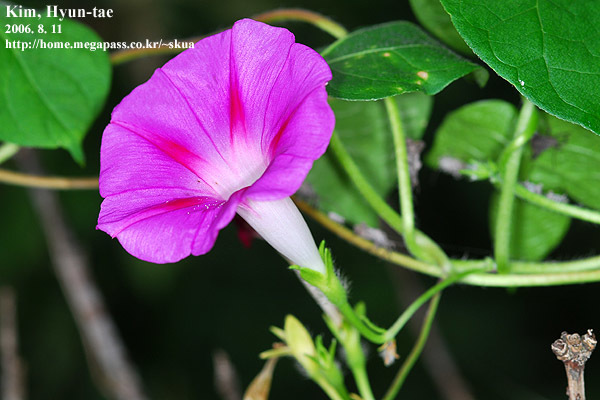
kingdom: Plantae
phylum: Tracheophyta
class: Magnoliopsida
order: Solanales
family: Convolvulaceae
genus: Ipomoea
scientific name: Ipomoea purpurea
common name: Common morning-glory
